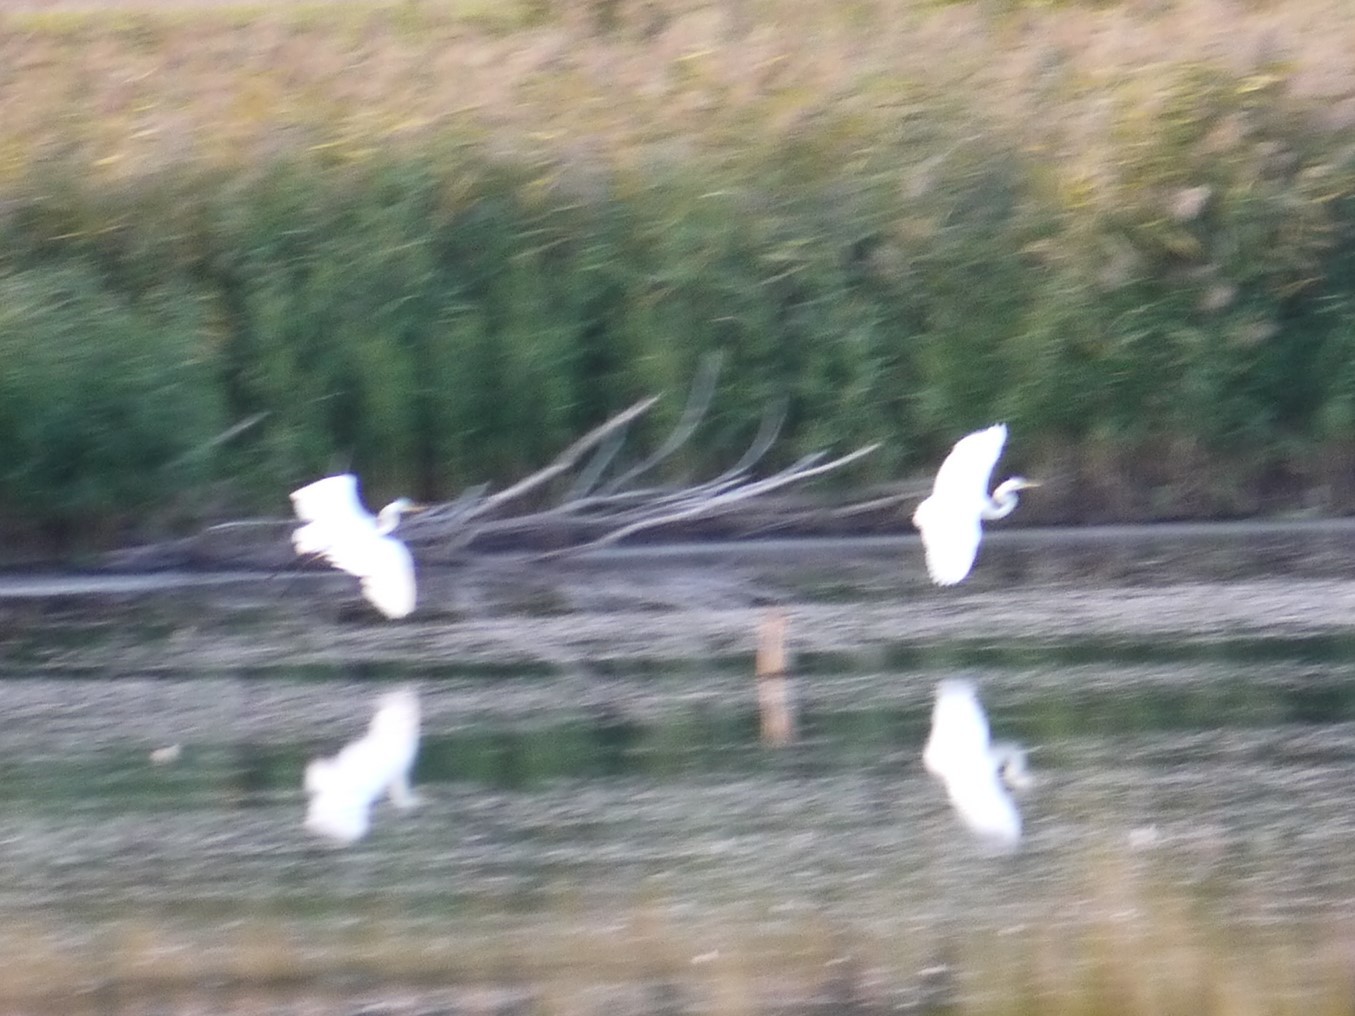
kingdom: Animalia
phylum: Chordata
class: Aves
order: Pelecaniformes
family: Ardeidae
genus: Ardea
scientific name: Ardea alba
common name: Great egret
